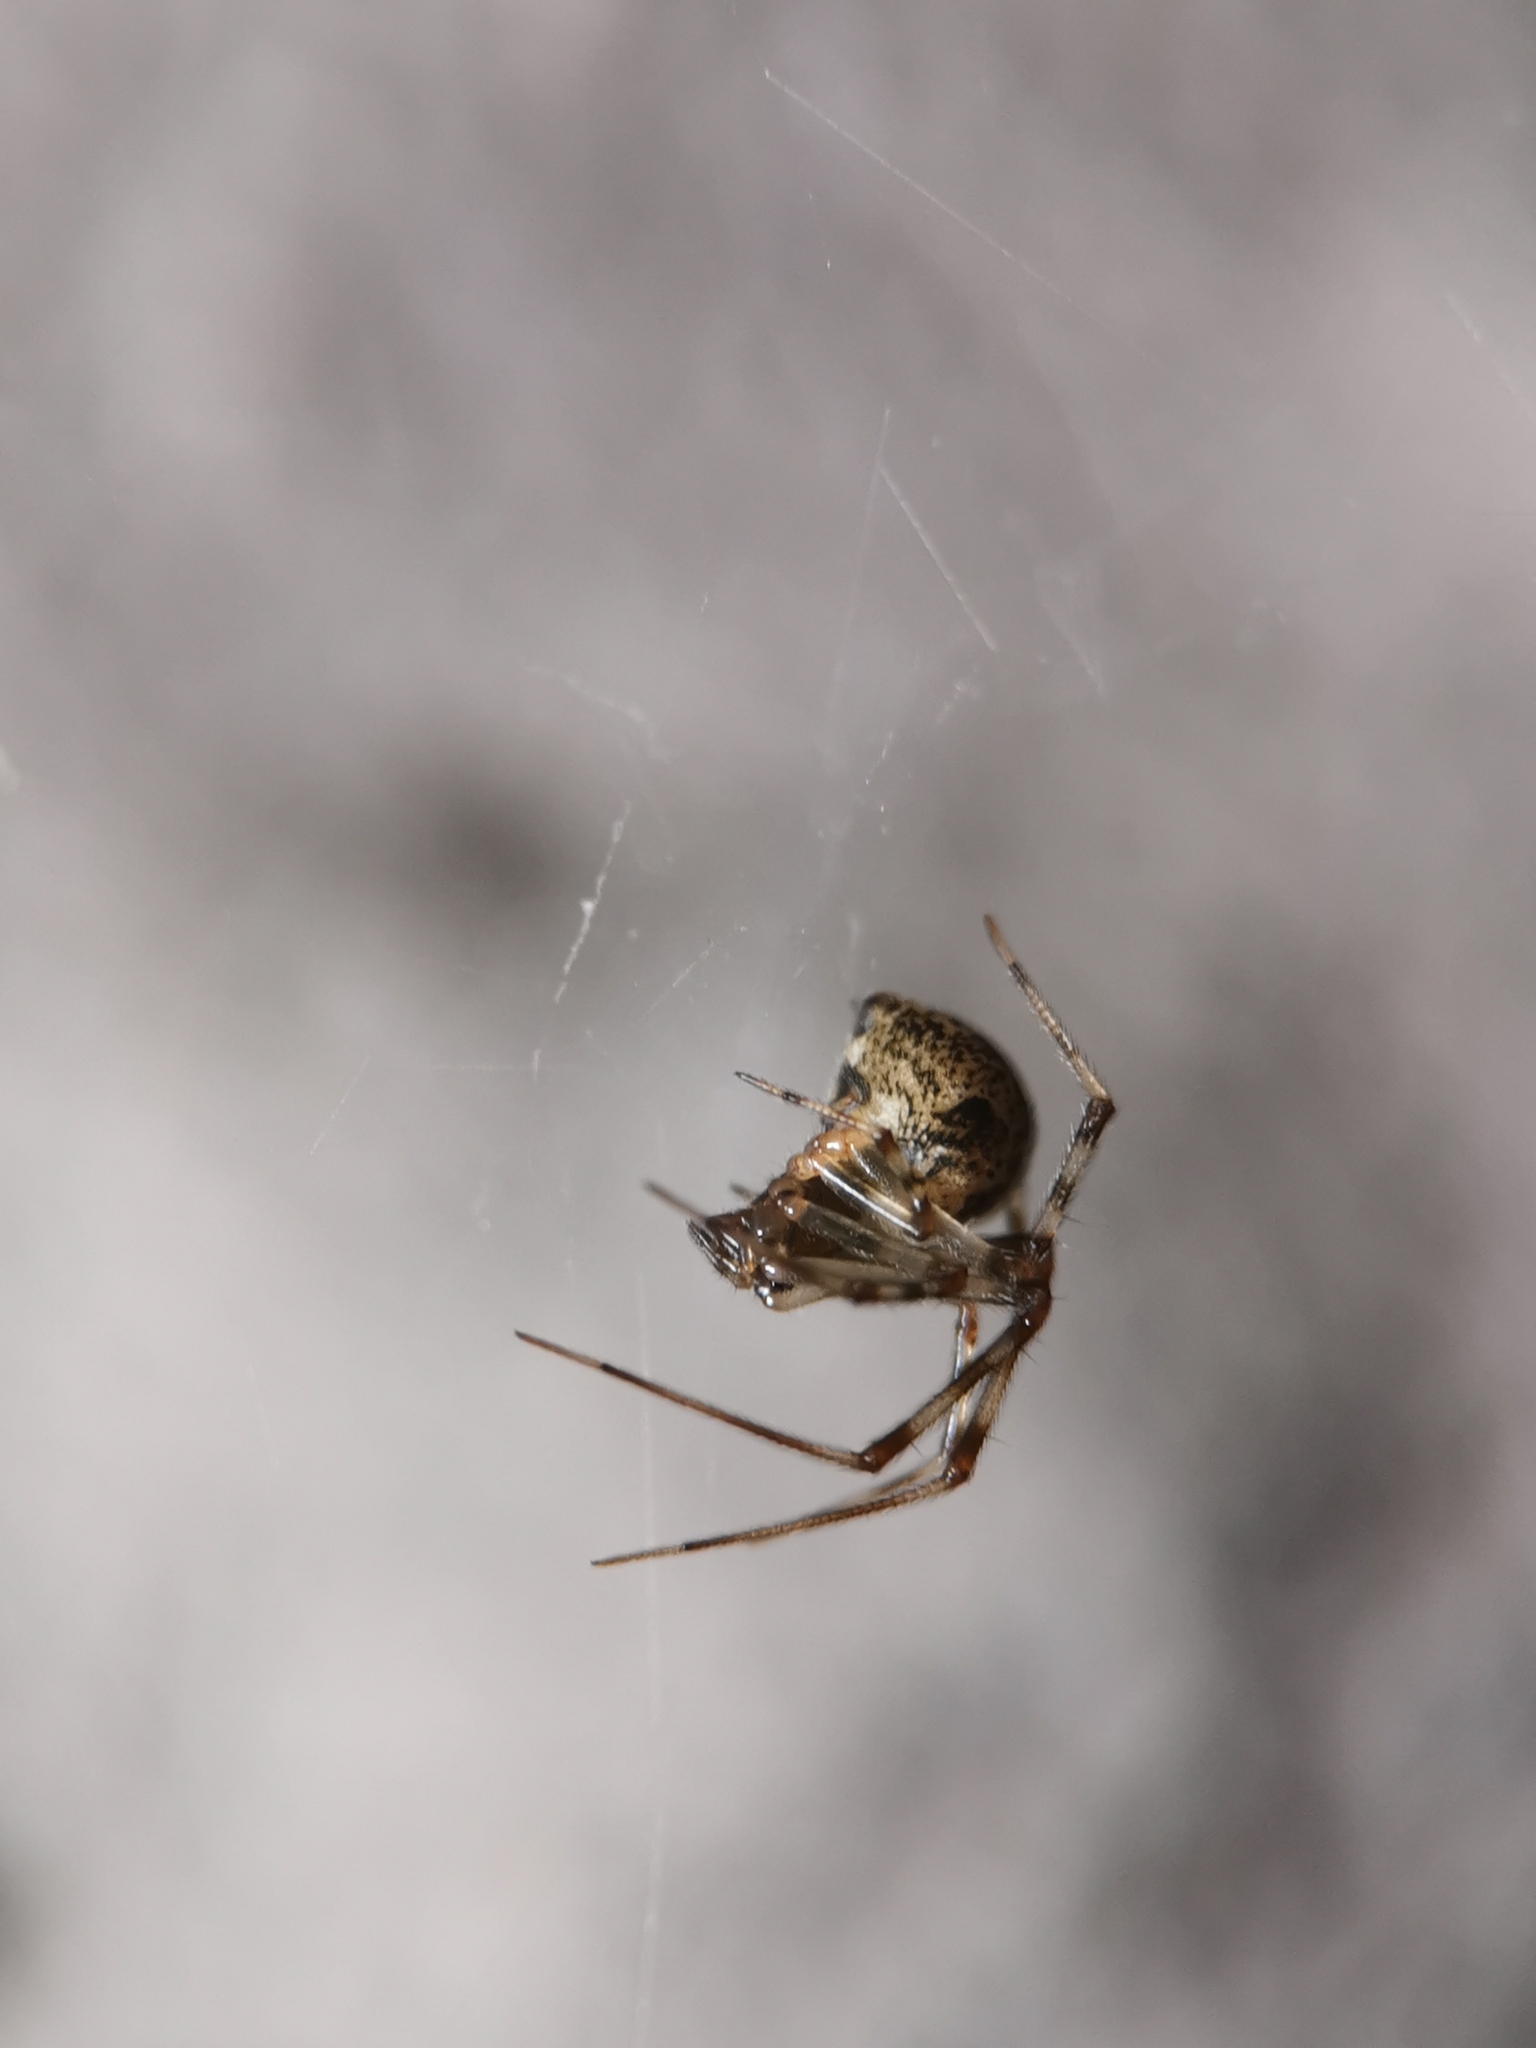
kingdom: Animalia
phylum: Arthropoda
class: Arachnida
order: Araneae
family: Theridiidae
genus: Parasteatoda
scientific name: Parasteatoda tepidariorum
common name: Common house spider
